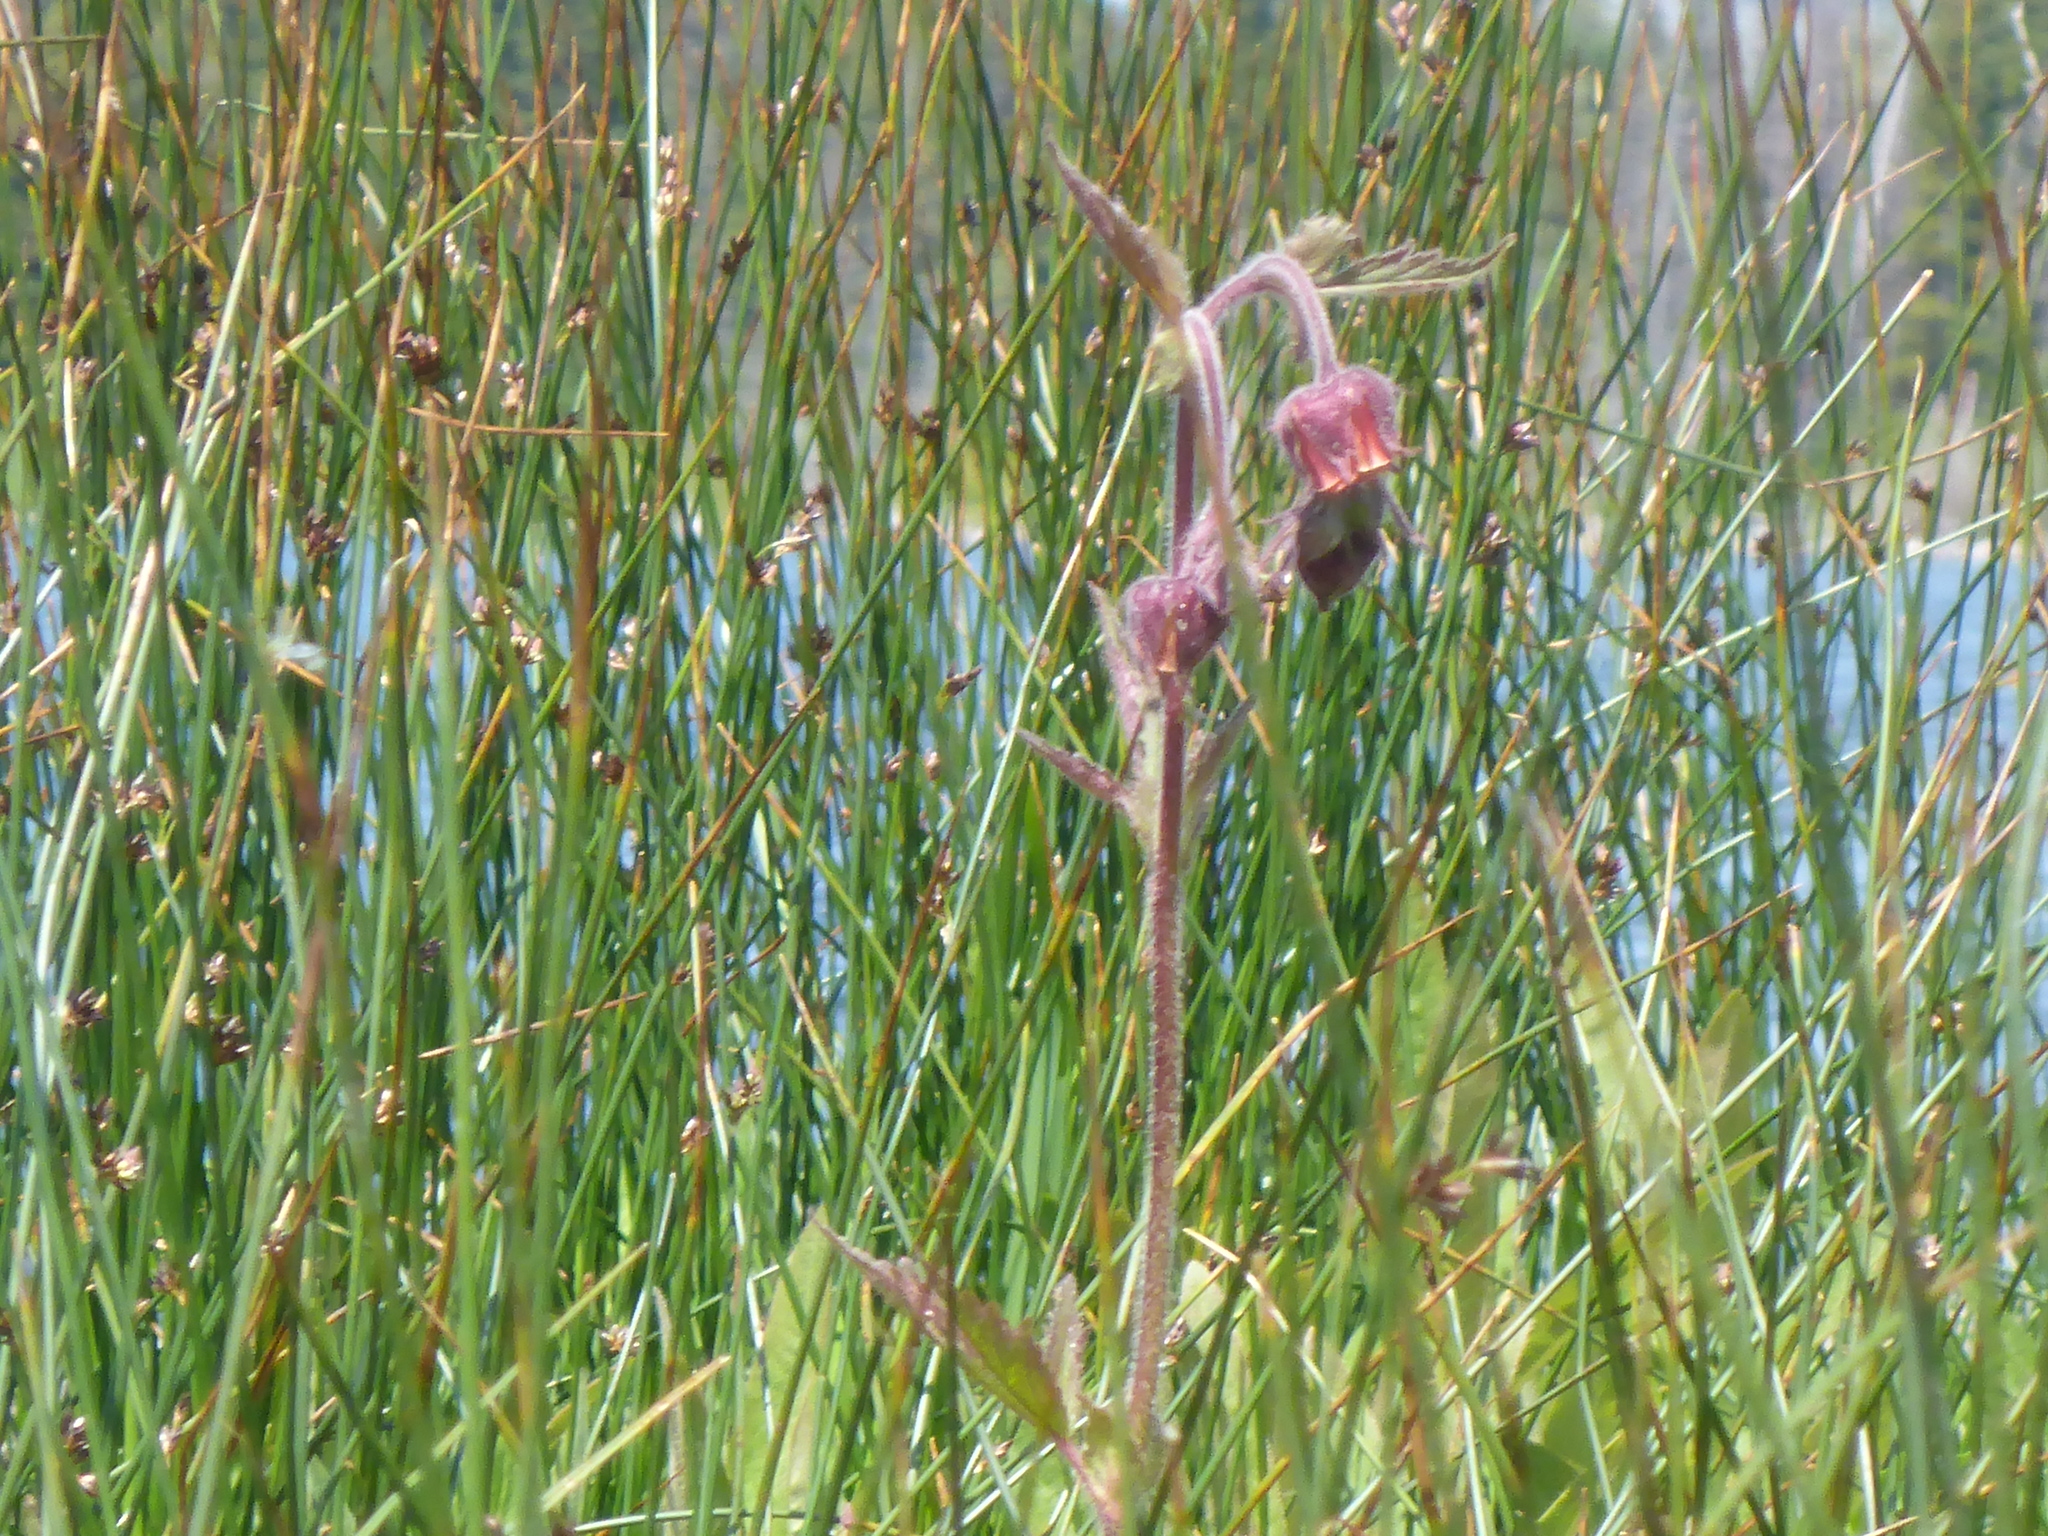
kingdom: Plantae
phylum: Tracheophyta
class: Magnoliopsida
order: Rosales
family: Rosaceae
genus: Geum
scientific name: Geum rivale
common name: Water avens
